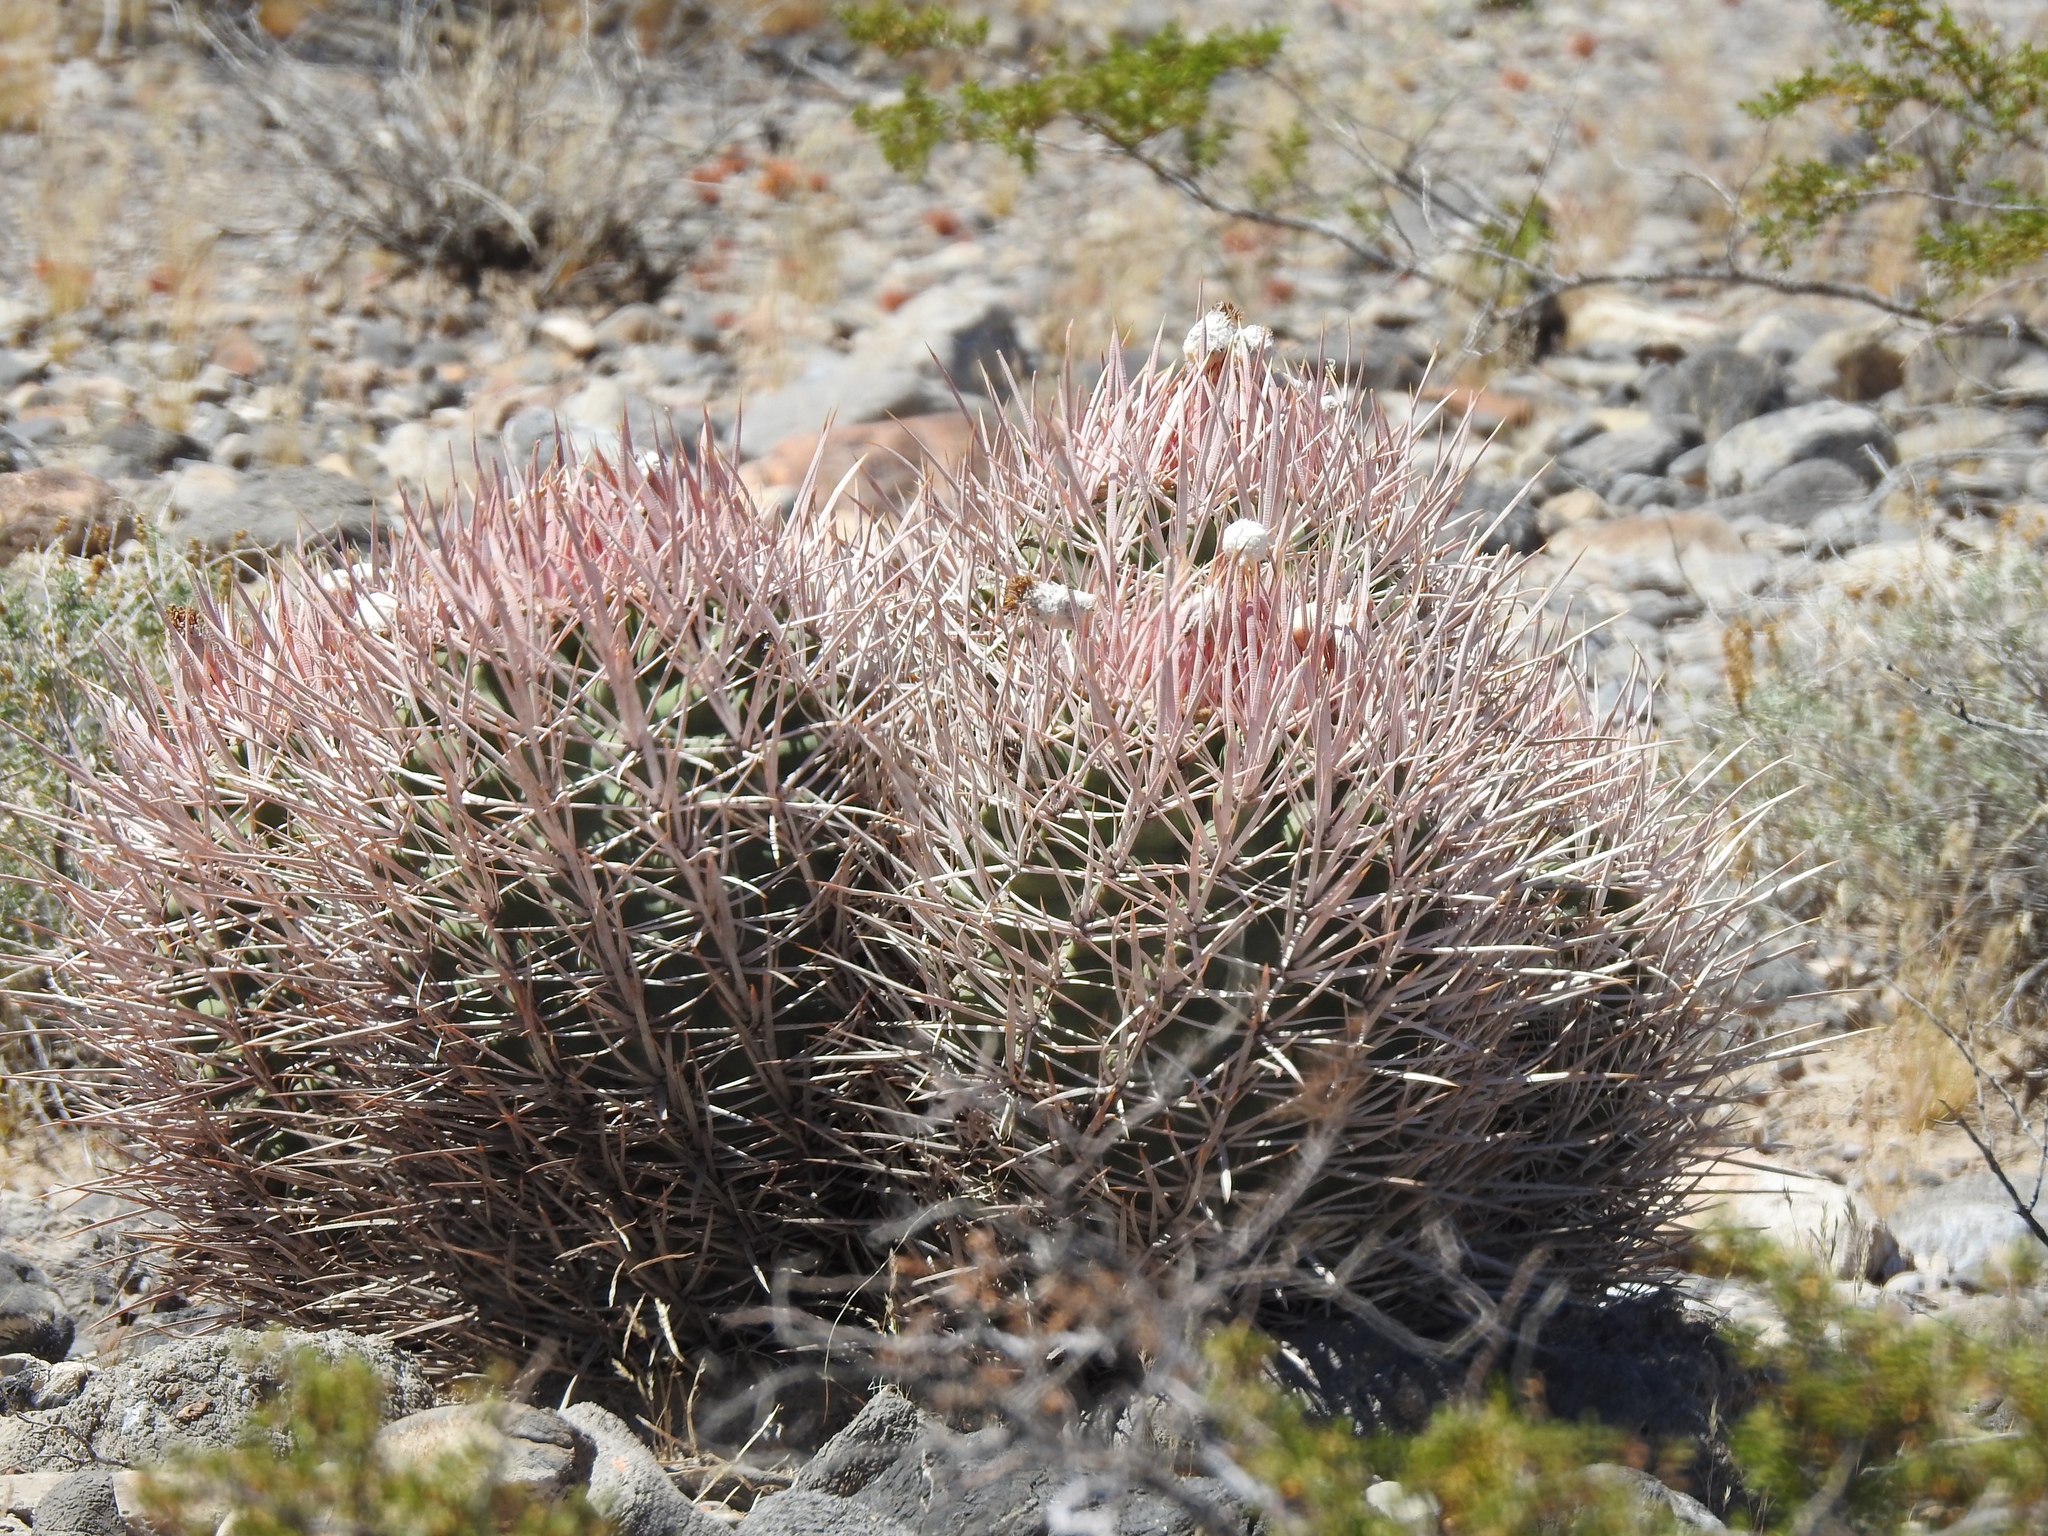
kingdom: Plantae
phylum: Tracheophyta
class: Magnoliopsida
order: Caryophyllales
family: Cactaceae
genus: Echinocactus
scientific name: Echinocactus polycephalus
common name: Cottontop cactus
